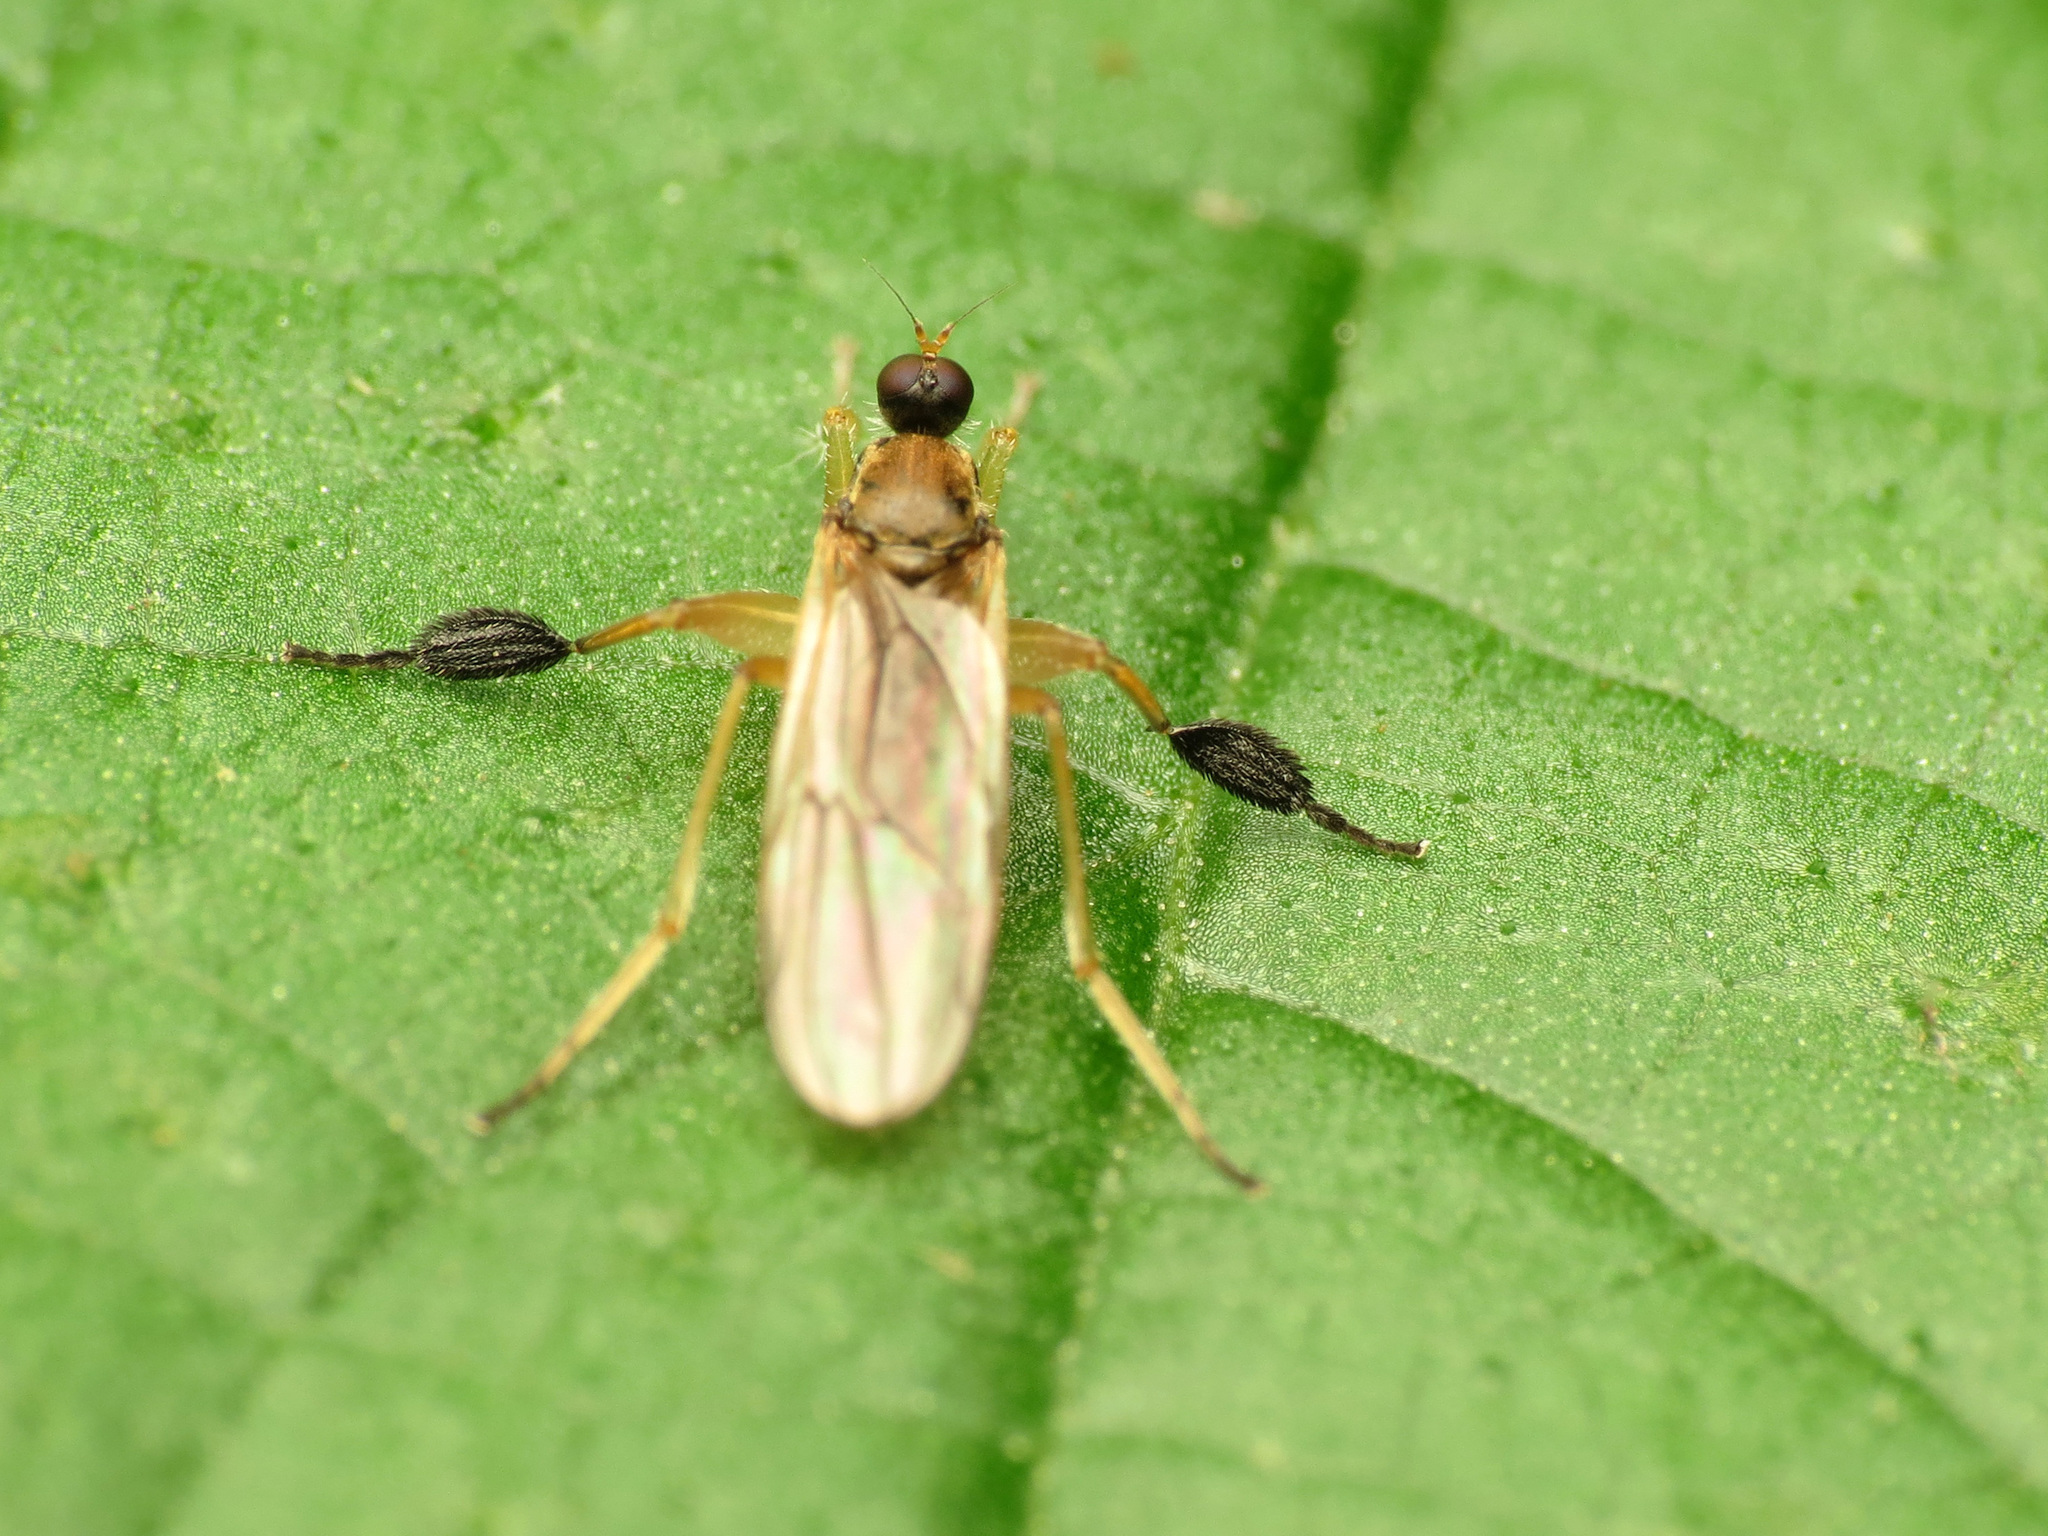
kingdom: Animalia
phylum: Arthropoda
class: Insecta
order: Diptera
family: Hybotidae
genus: Platypalpus
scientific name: Platypalpus discifer
